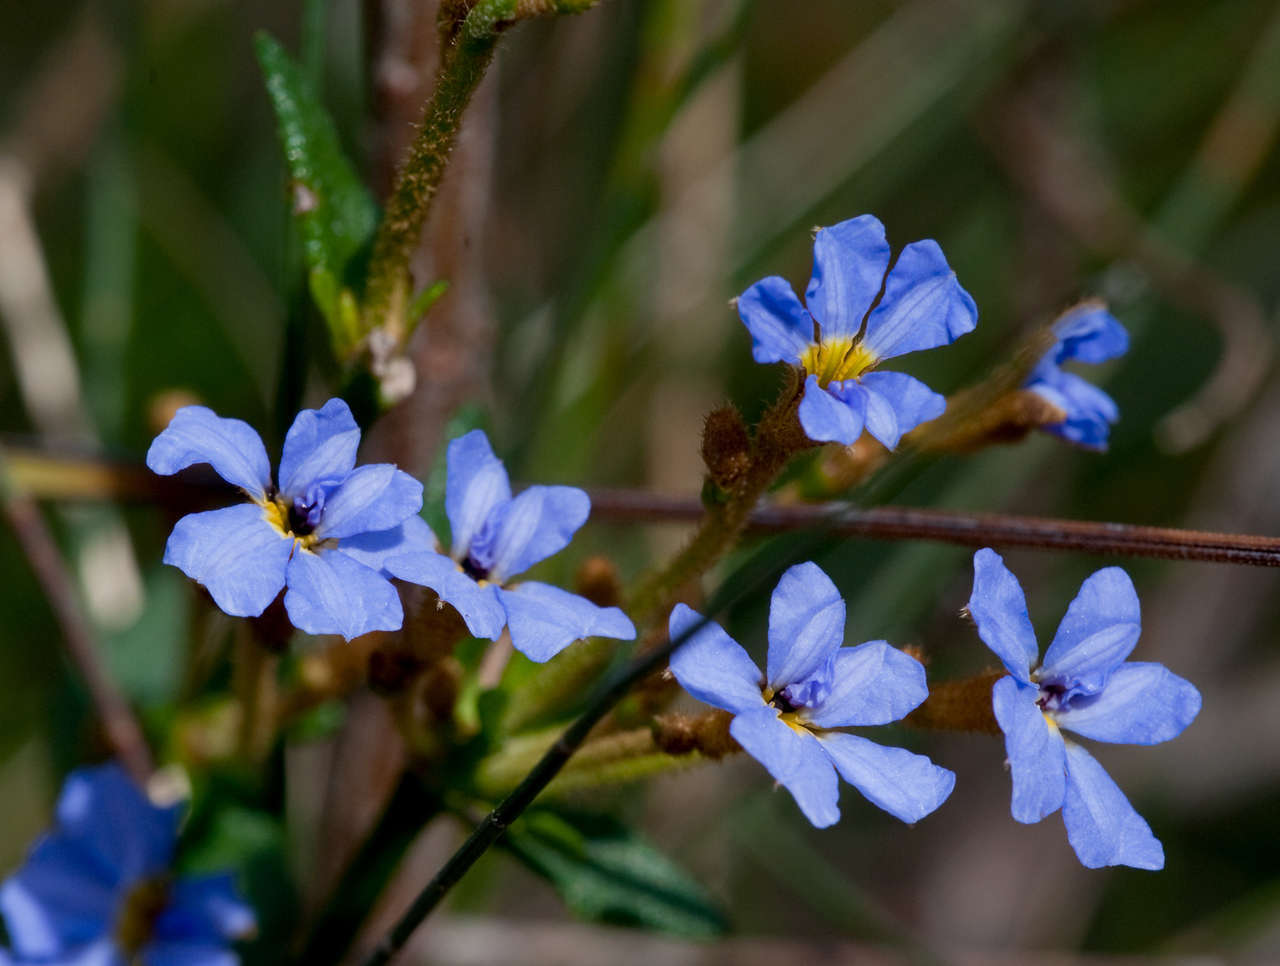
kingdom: Plantae
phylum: Tracheophyta
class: Magnoliopsida
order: Asterales
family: Goodeniaceae
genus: Dampiera
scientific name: Dampiera stricta
